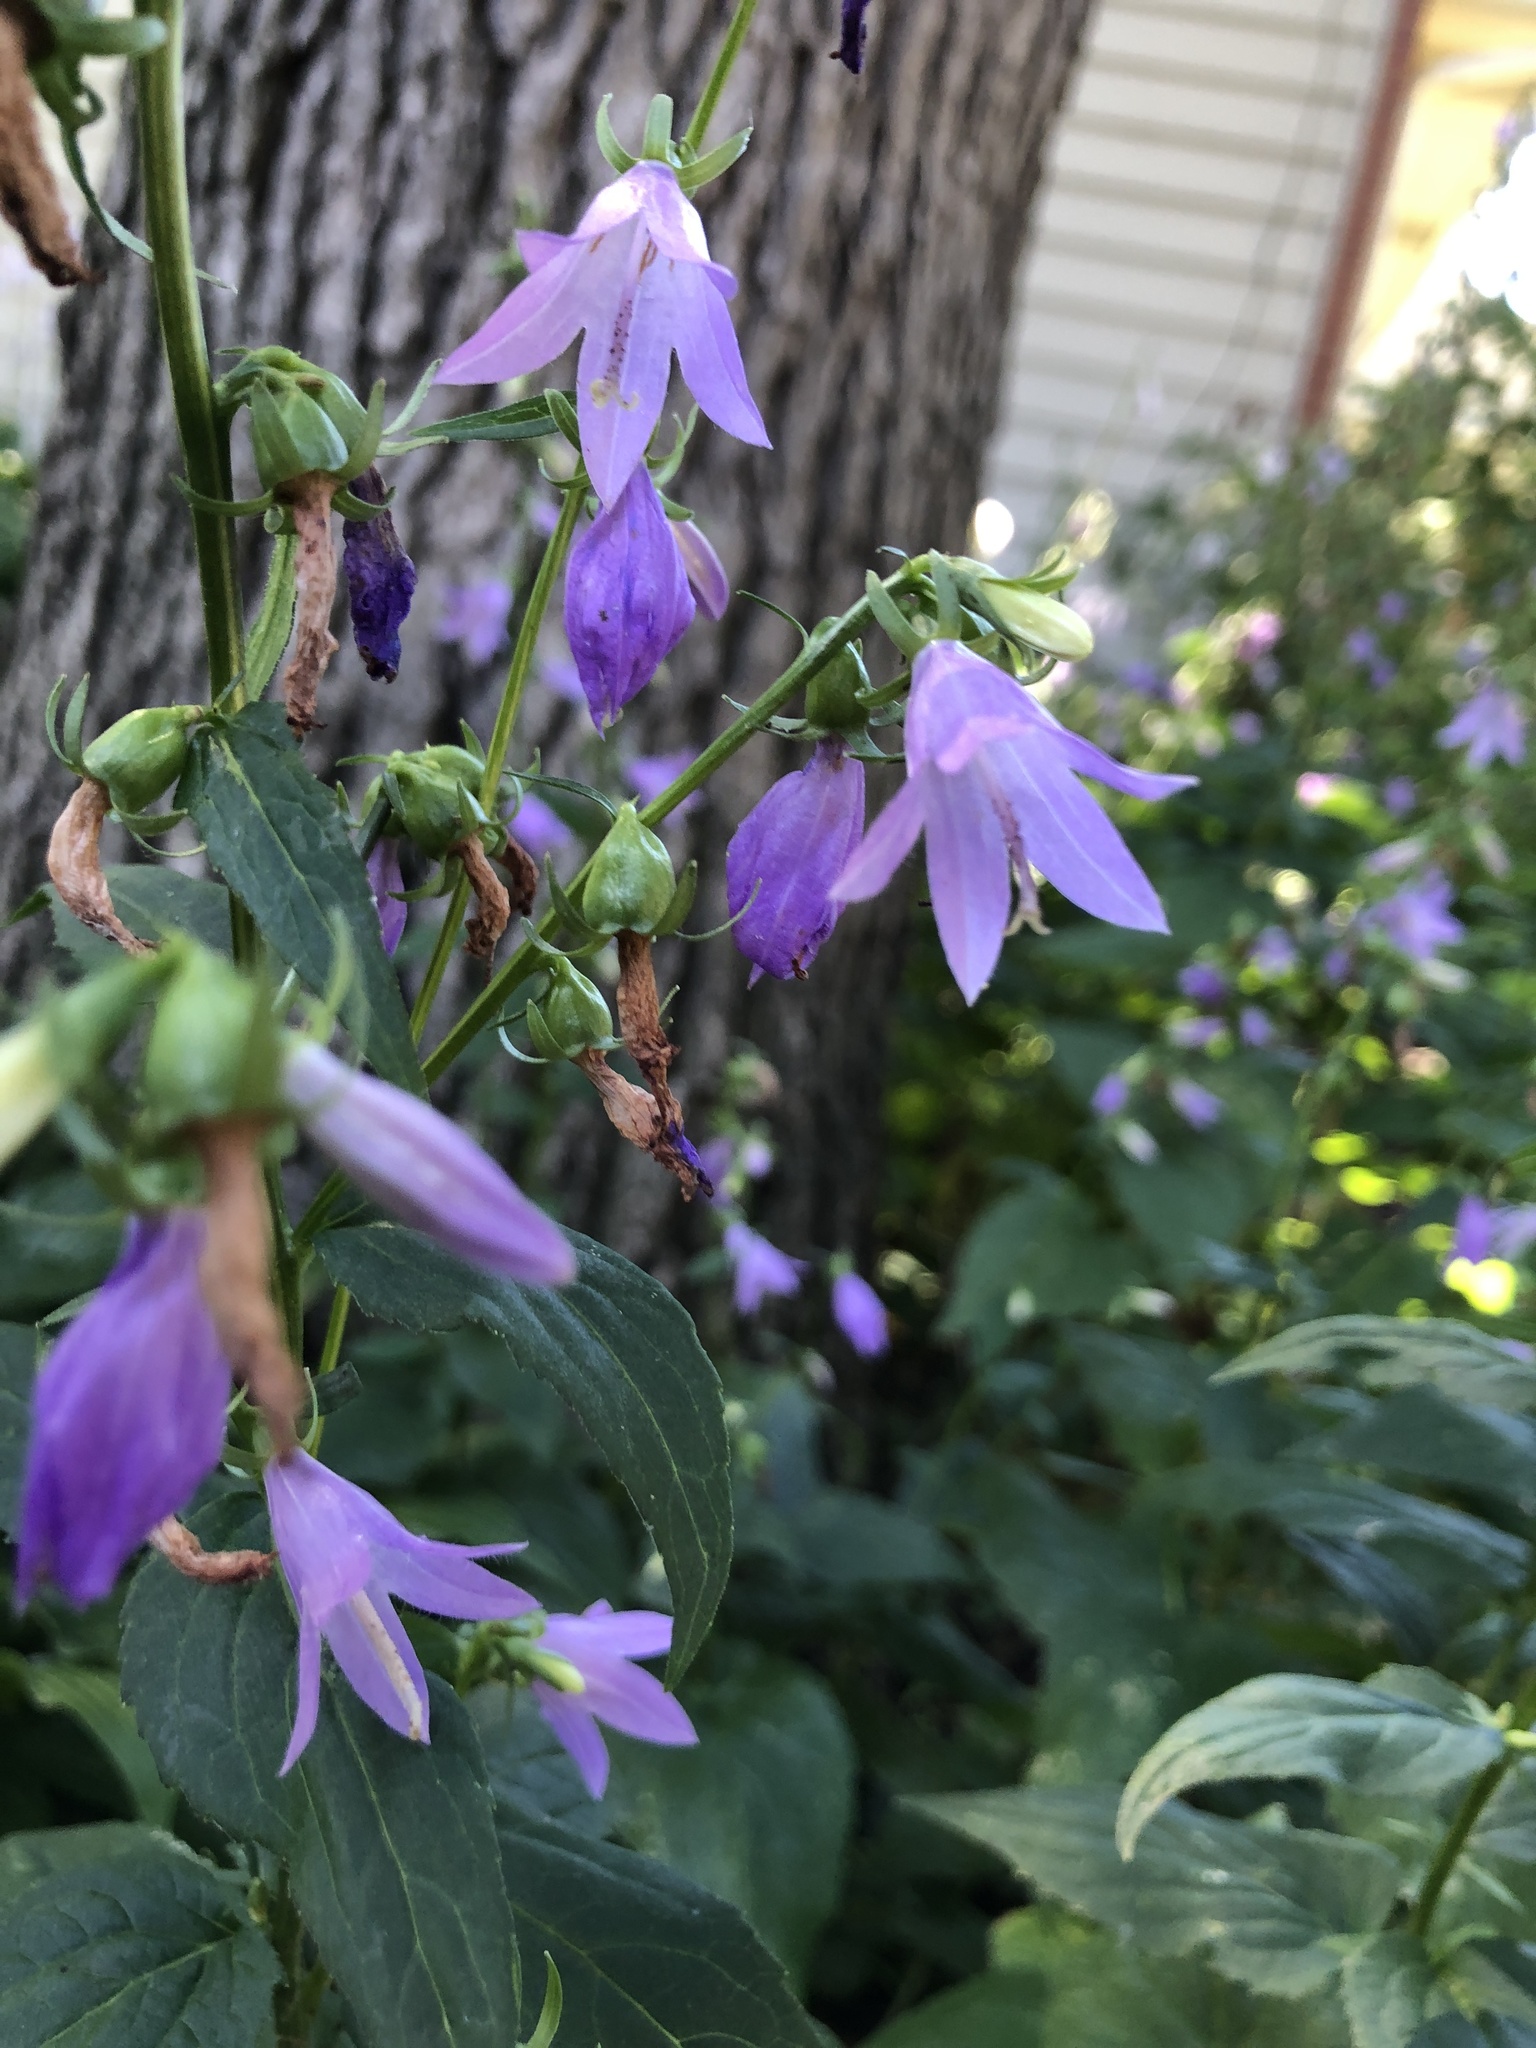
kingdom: Plantae
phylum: Tracheophyta
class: Magnoliopsida
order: Asterales
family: Campanulaceae
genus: Campanula
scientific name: Campanula rapunculoides
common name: Creeping bellflower
